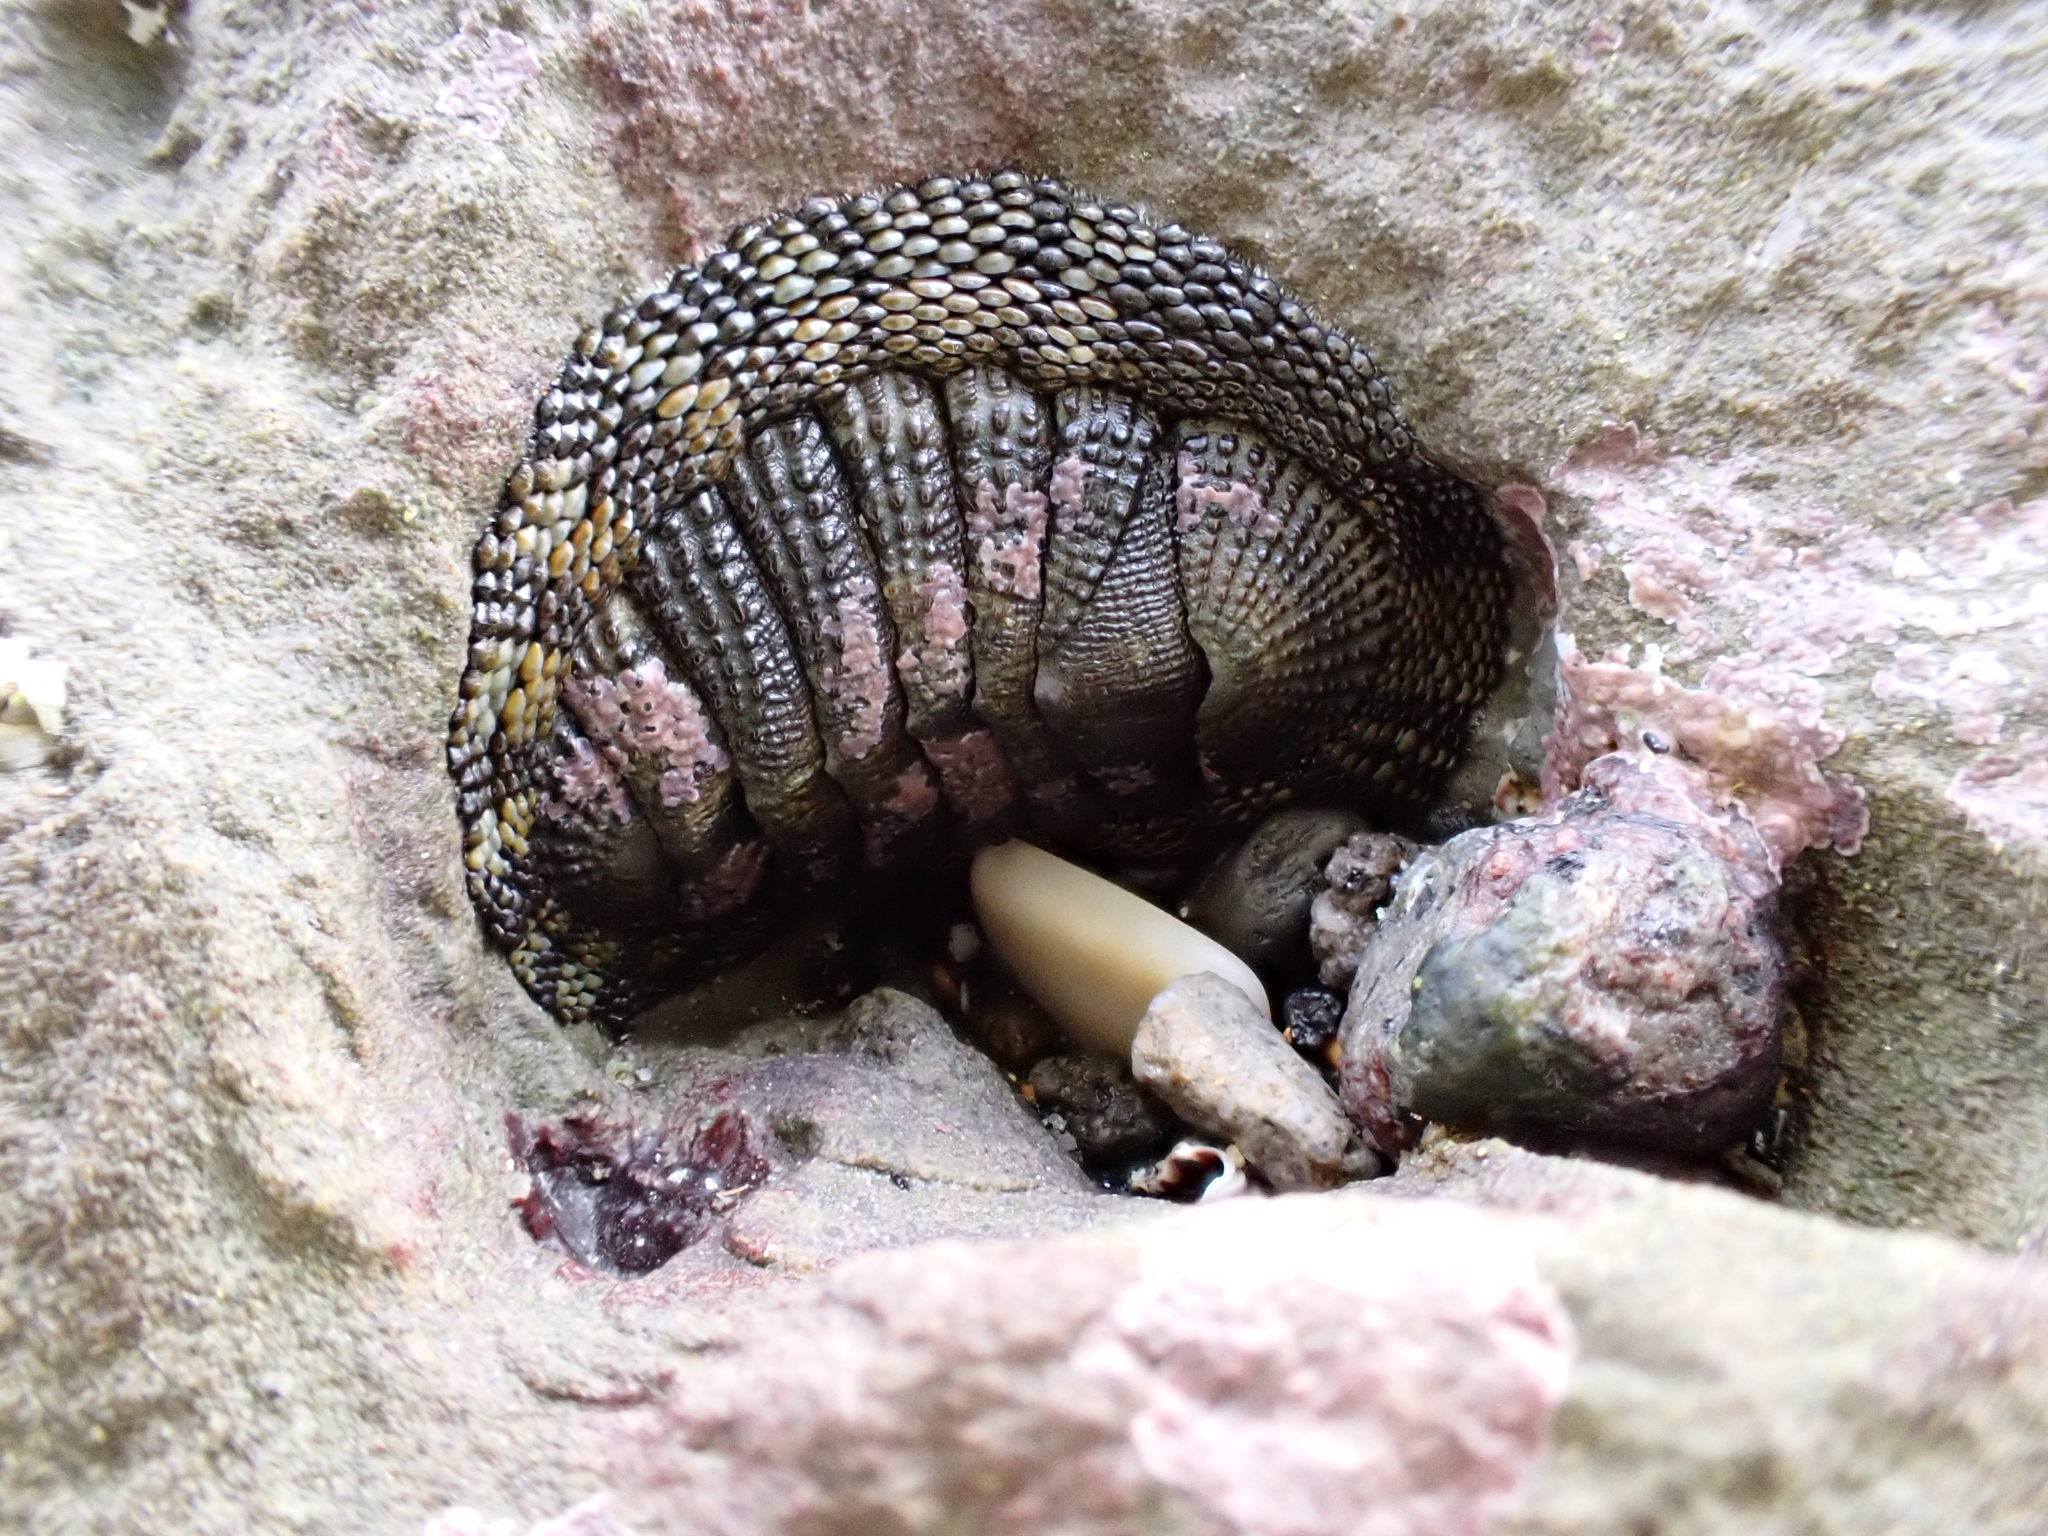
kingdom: Animalia
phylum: Mollusca
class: Polyplacophora
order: Chitonida
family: Chitonidae
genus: Sypharochiton
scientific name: Sypharochiton pelliserpentis
